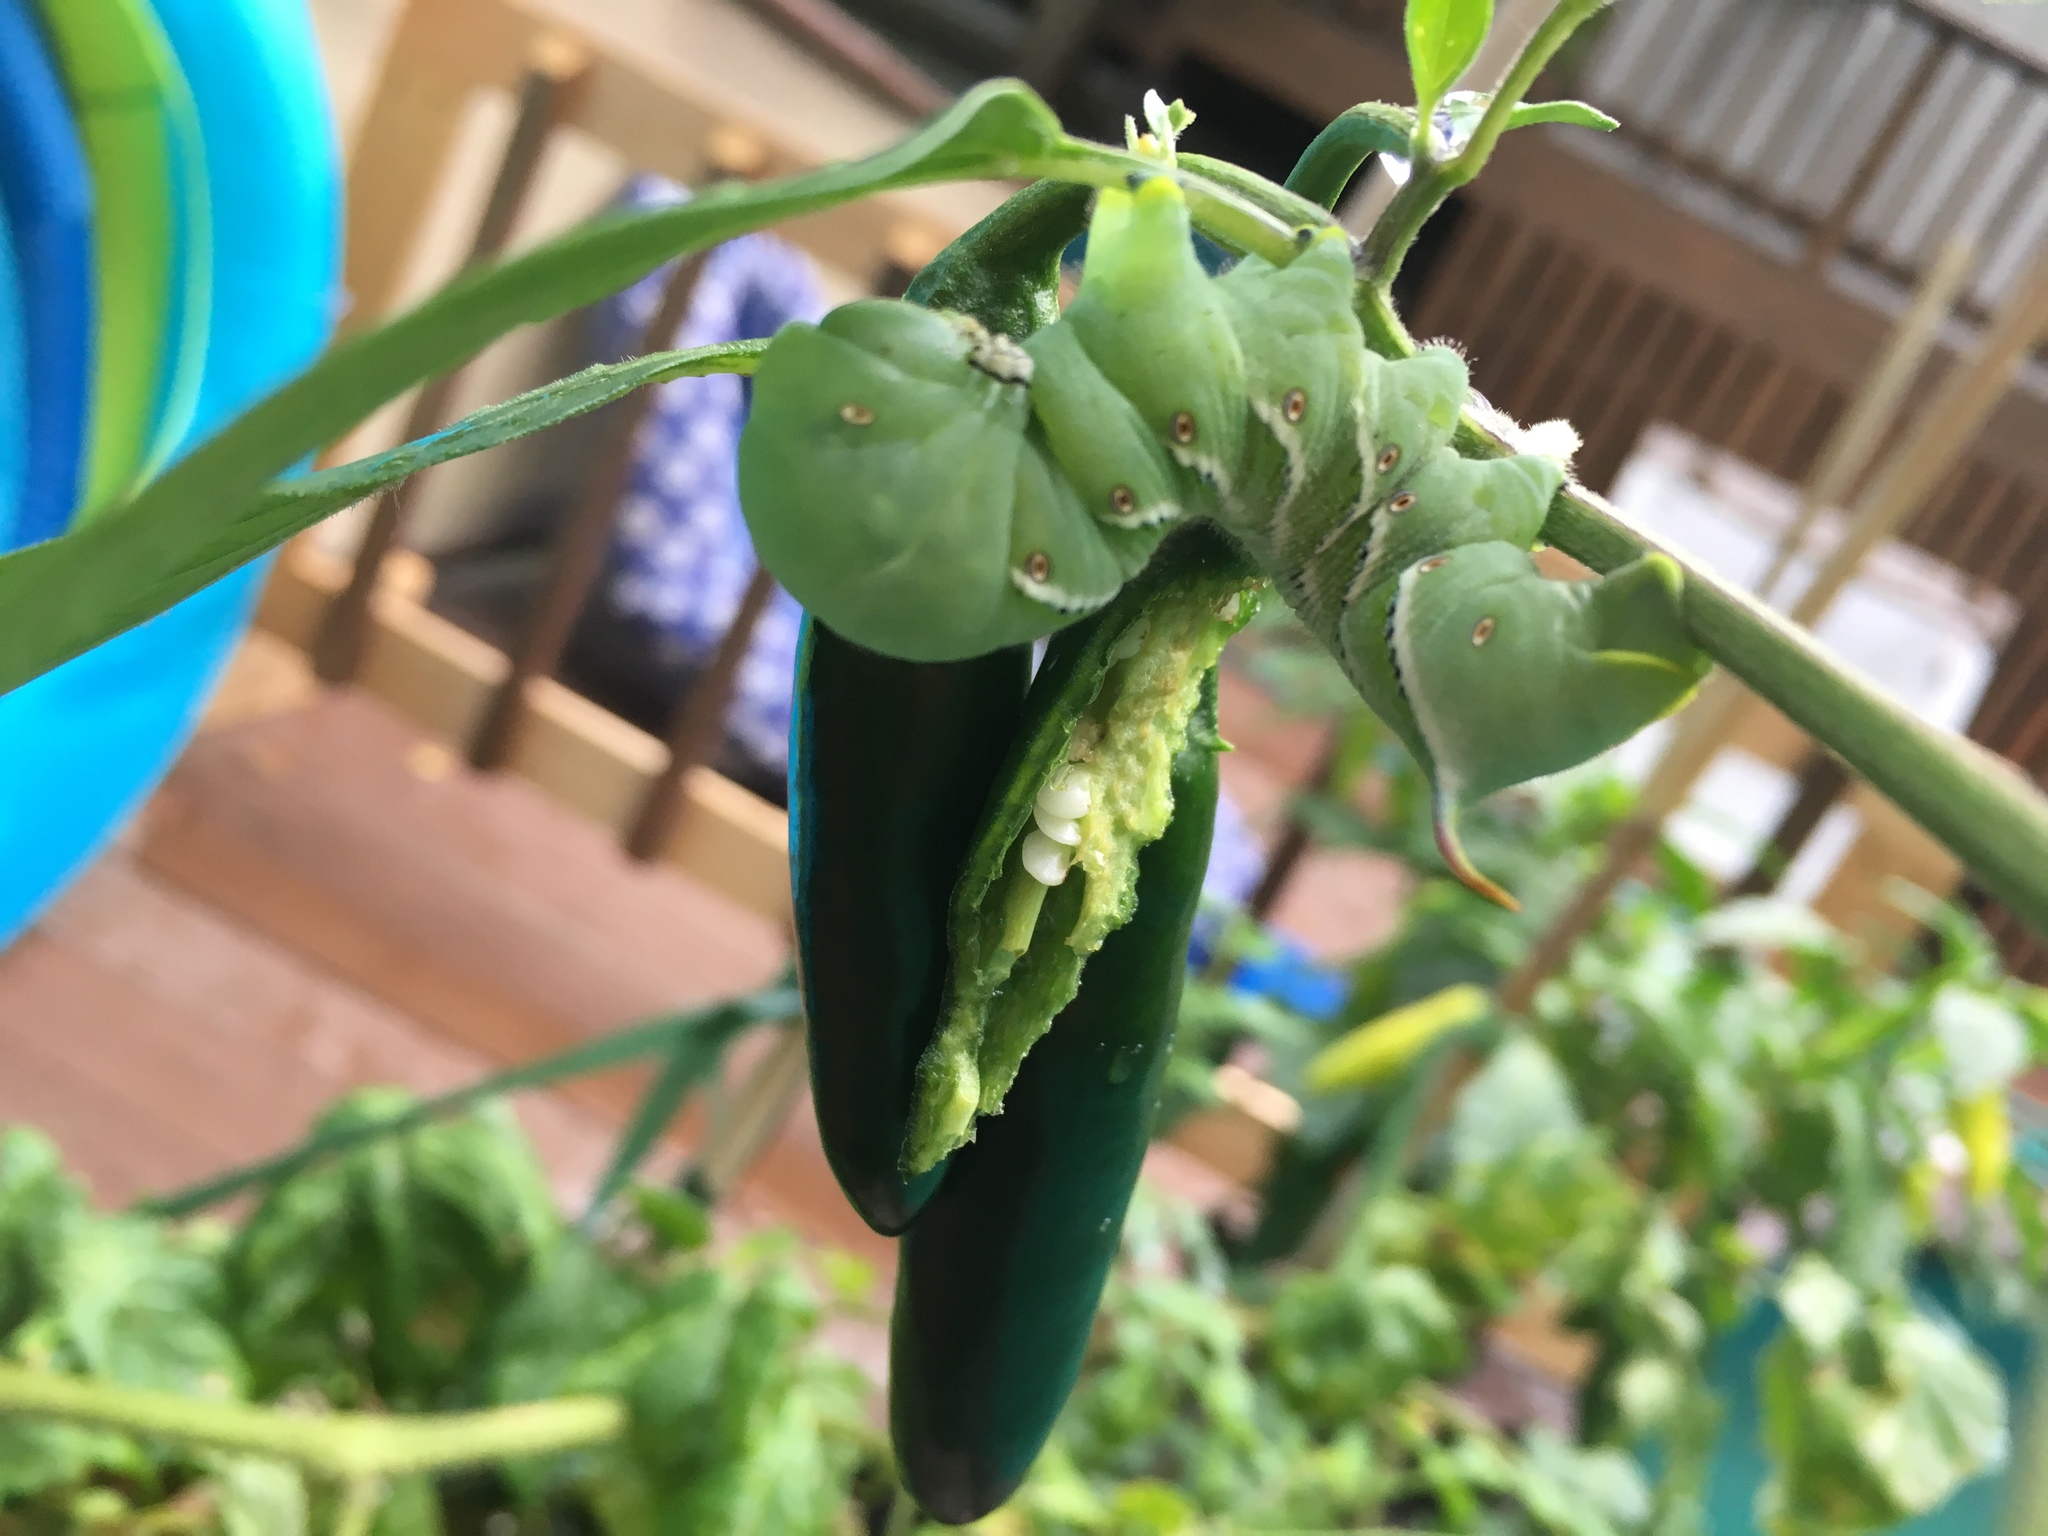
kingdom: Animalia
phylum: Arthropoda
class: Insecta
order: Lepidoptera
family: Sphingidae
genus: Manduca
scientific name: Manduca sexta
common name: Carolina sphinx
